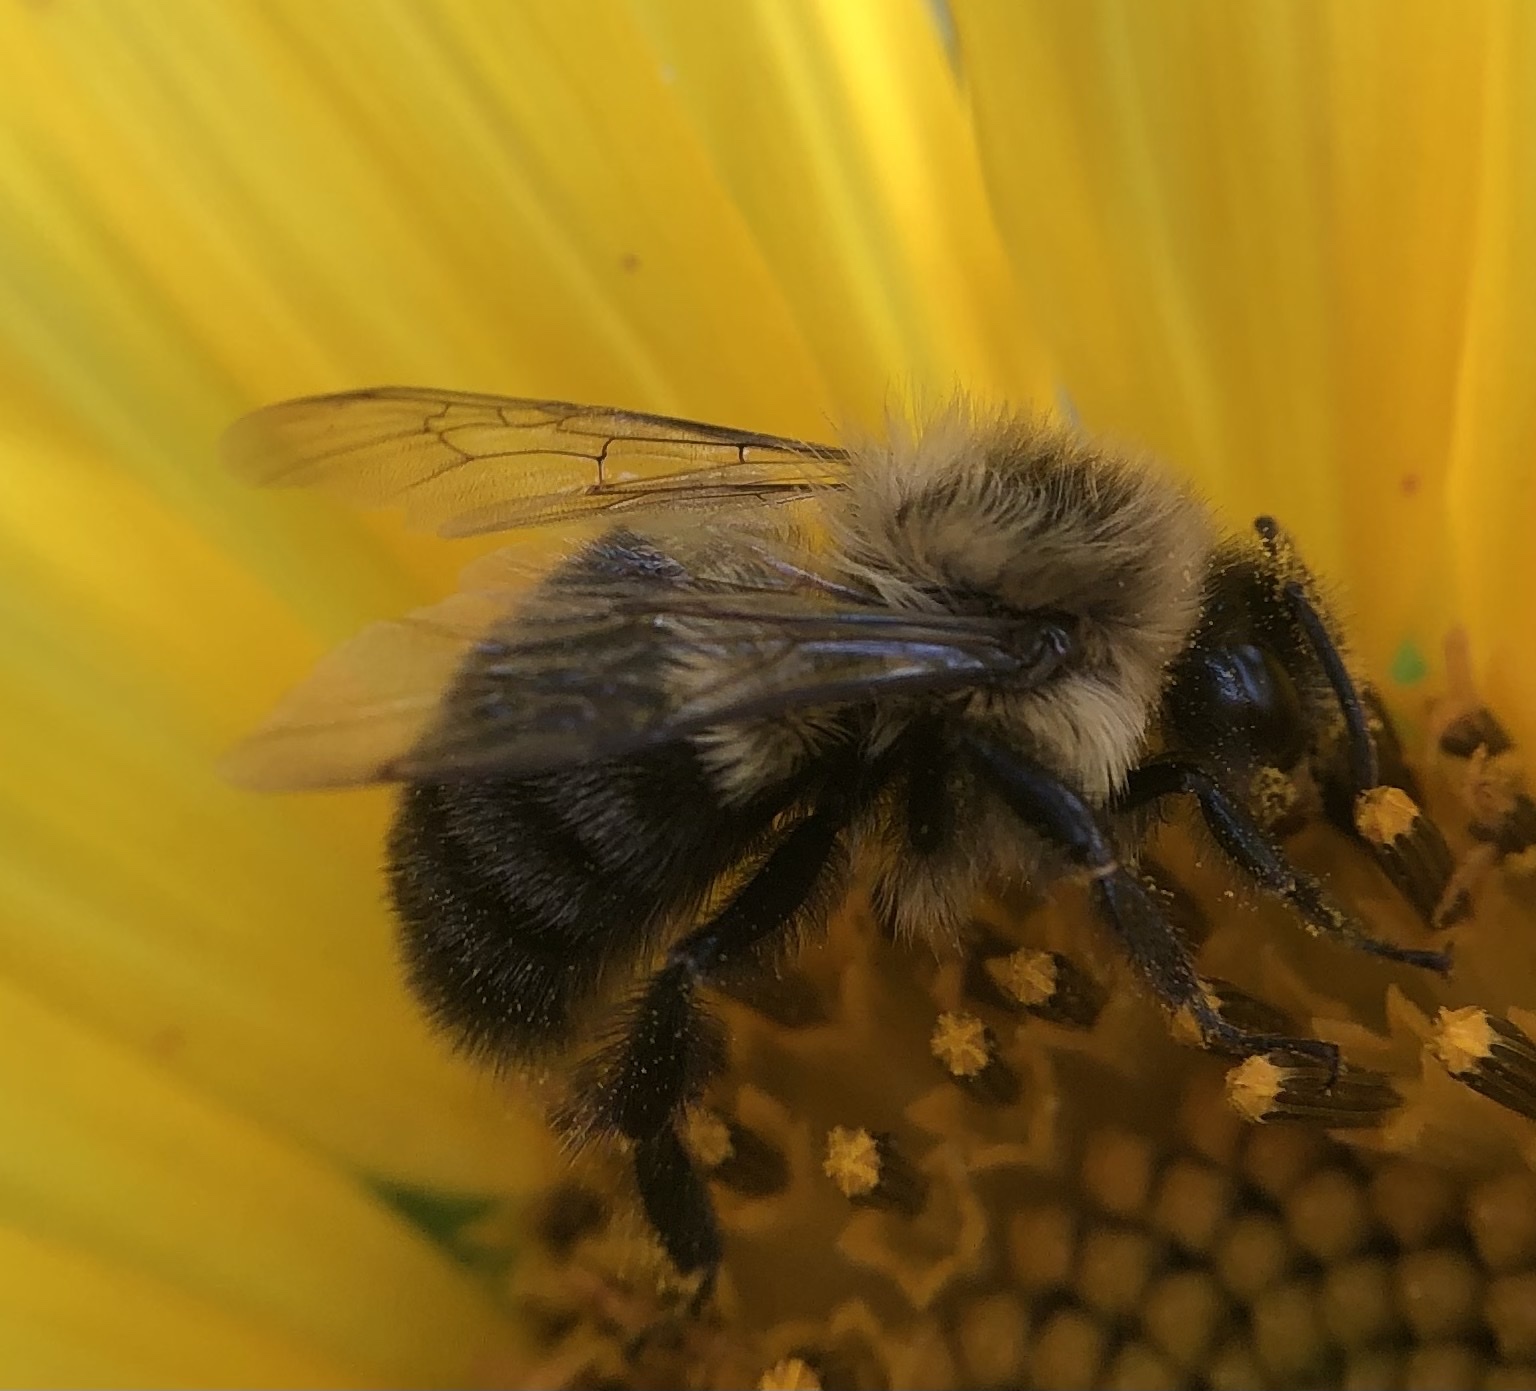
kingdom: Animalia
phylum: Arthropoda
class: Insecta
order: Hymenoptera
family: Apidae
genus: Bombus
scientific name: Bombus impatiens
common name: Common eastern bumble bee
